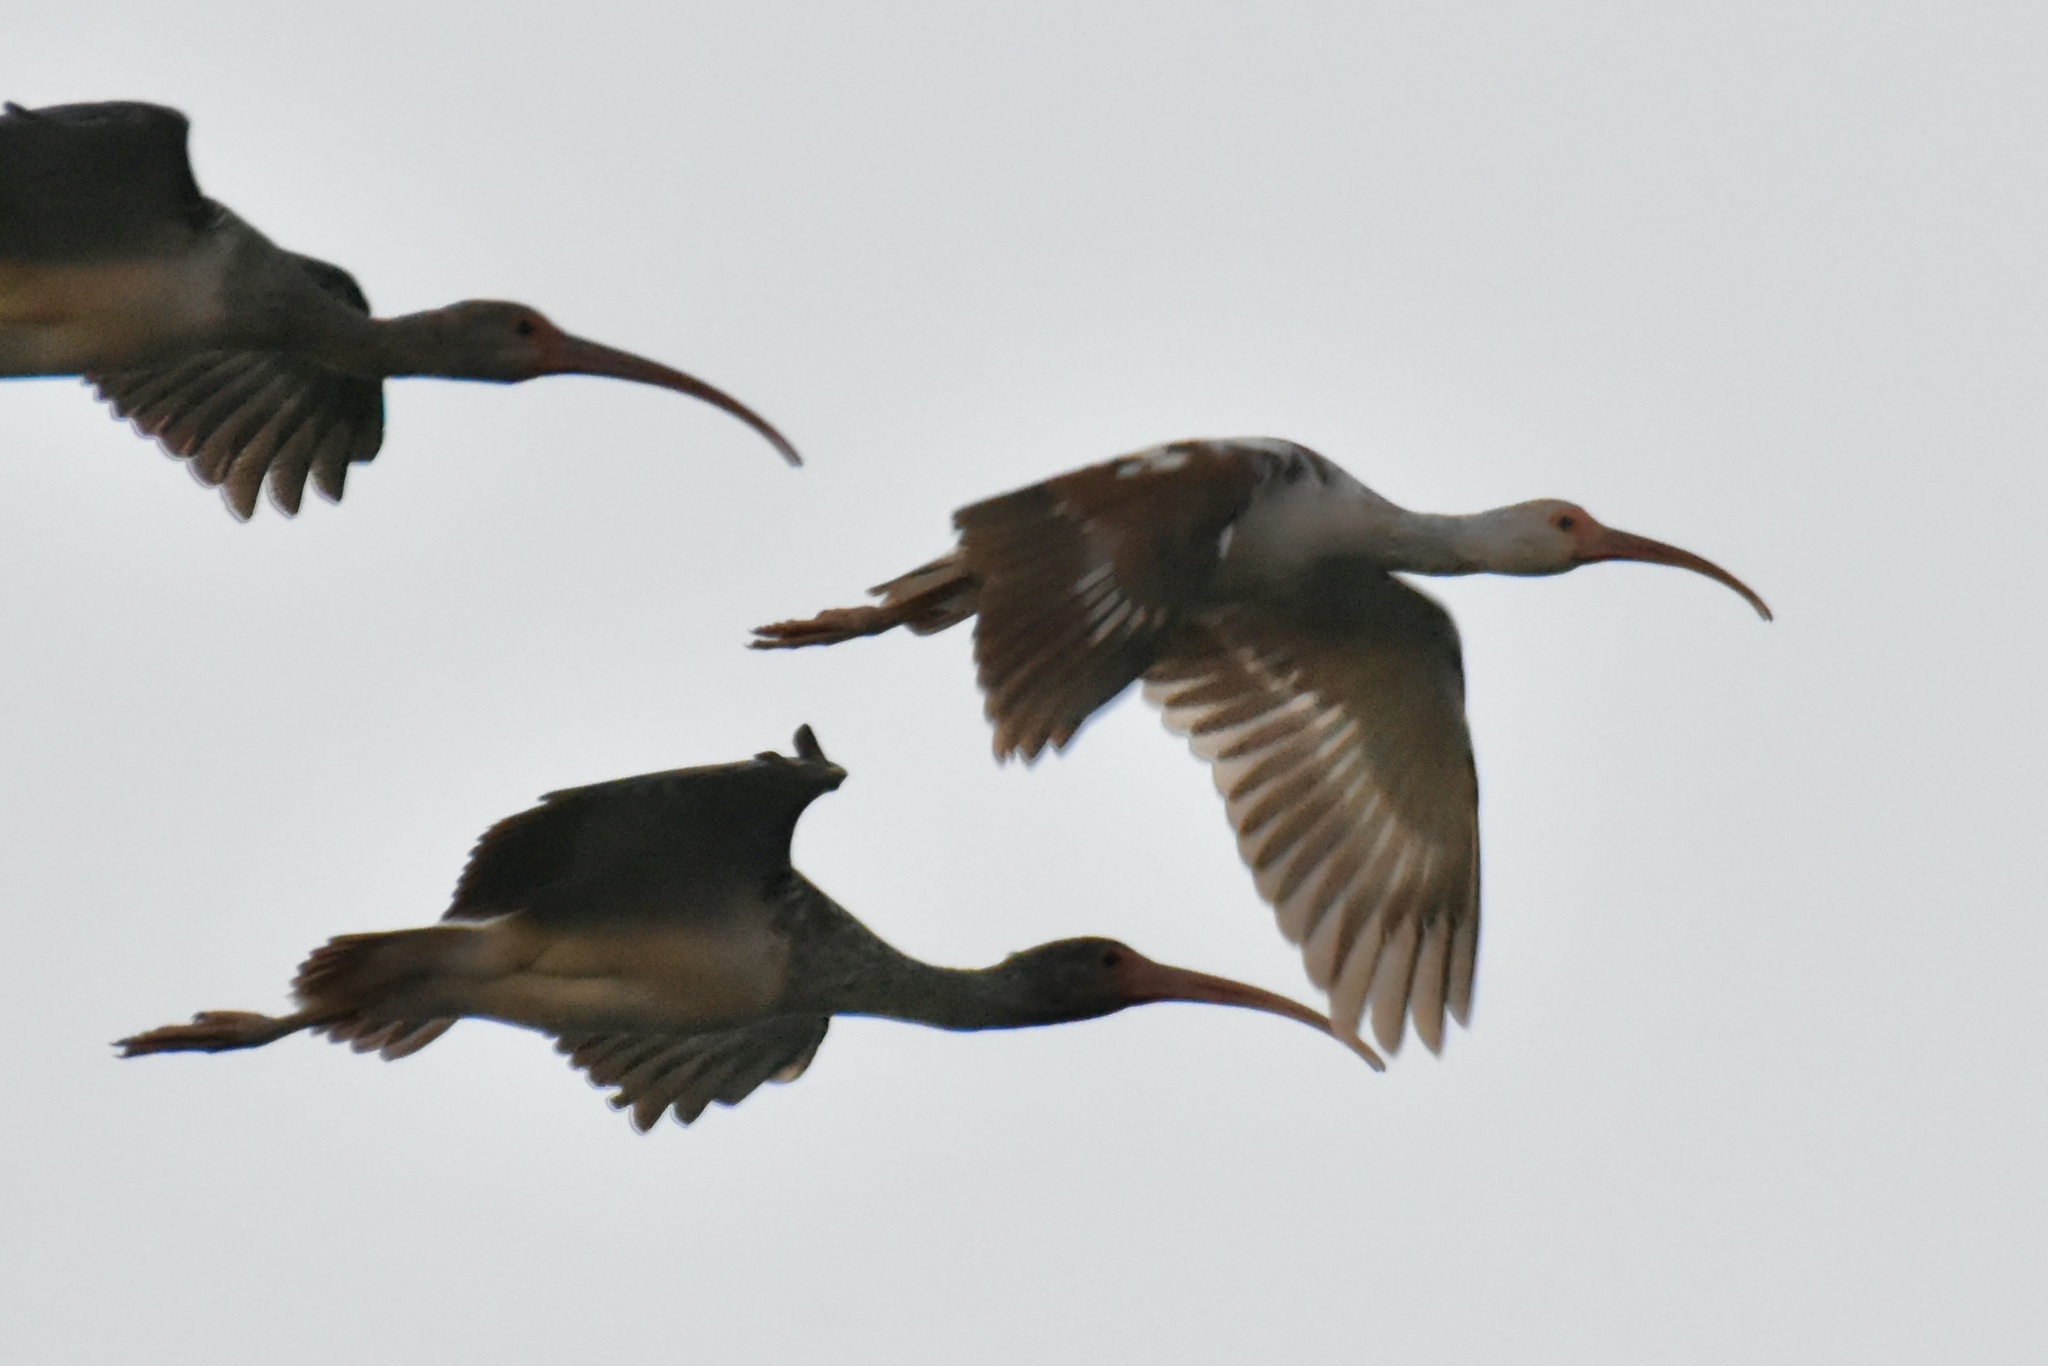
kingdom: Animalia
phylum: Chordata
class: Aves
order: Pelecaniformes
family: Threskiornithidae
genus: Eudocimus
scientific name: Eudocimus albus
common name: White ibis
